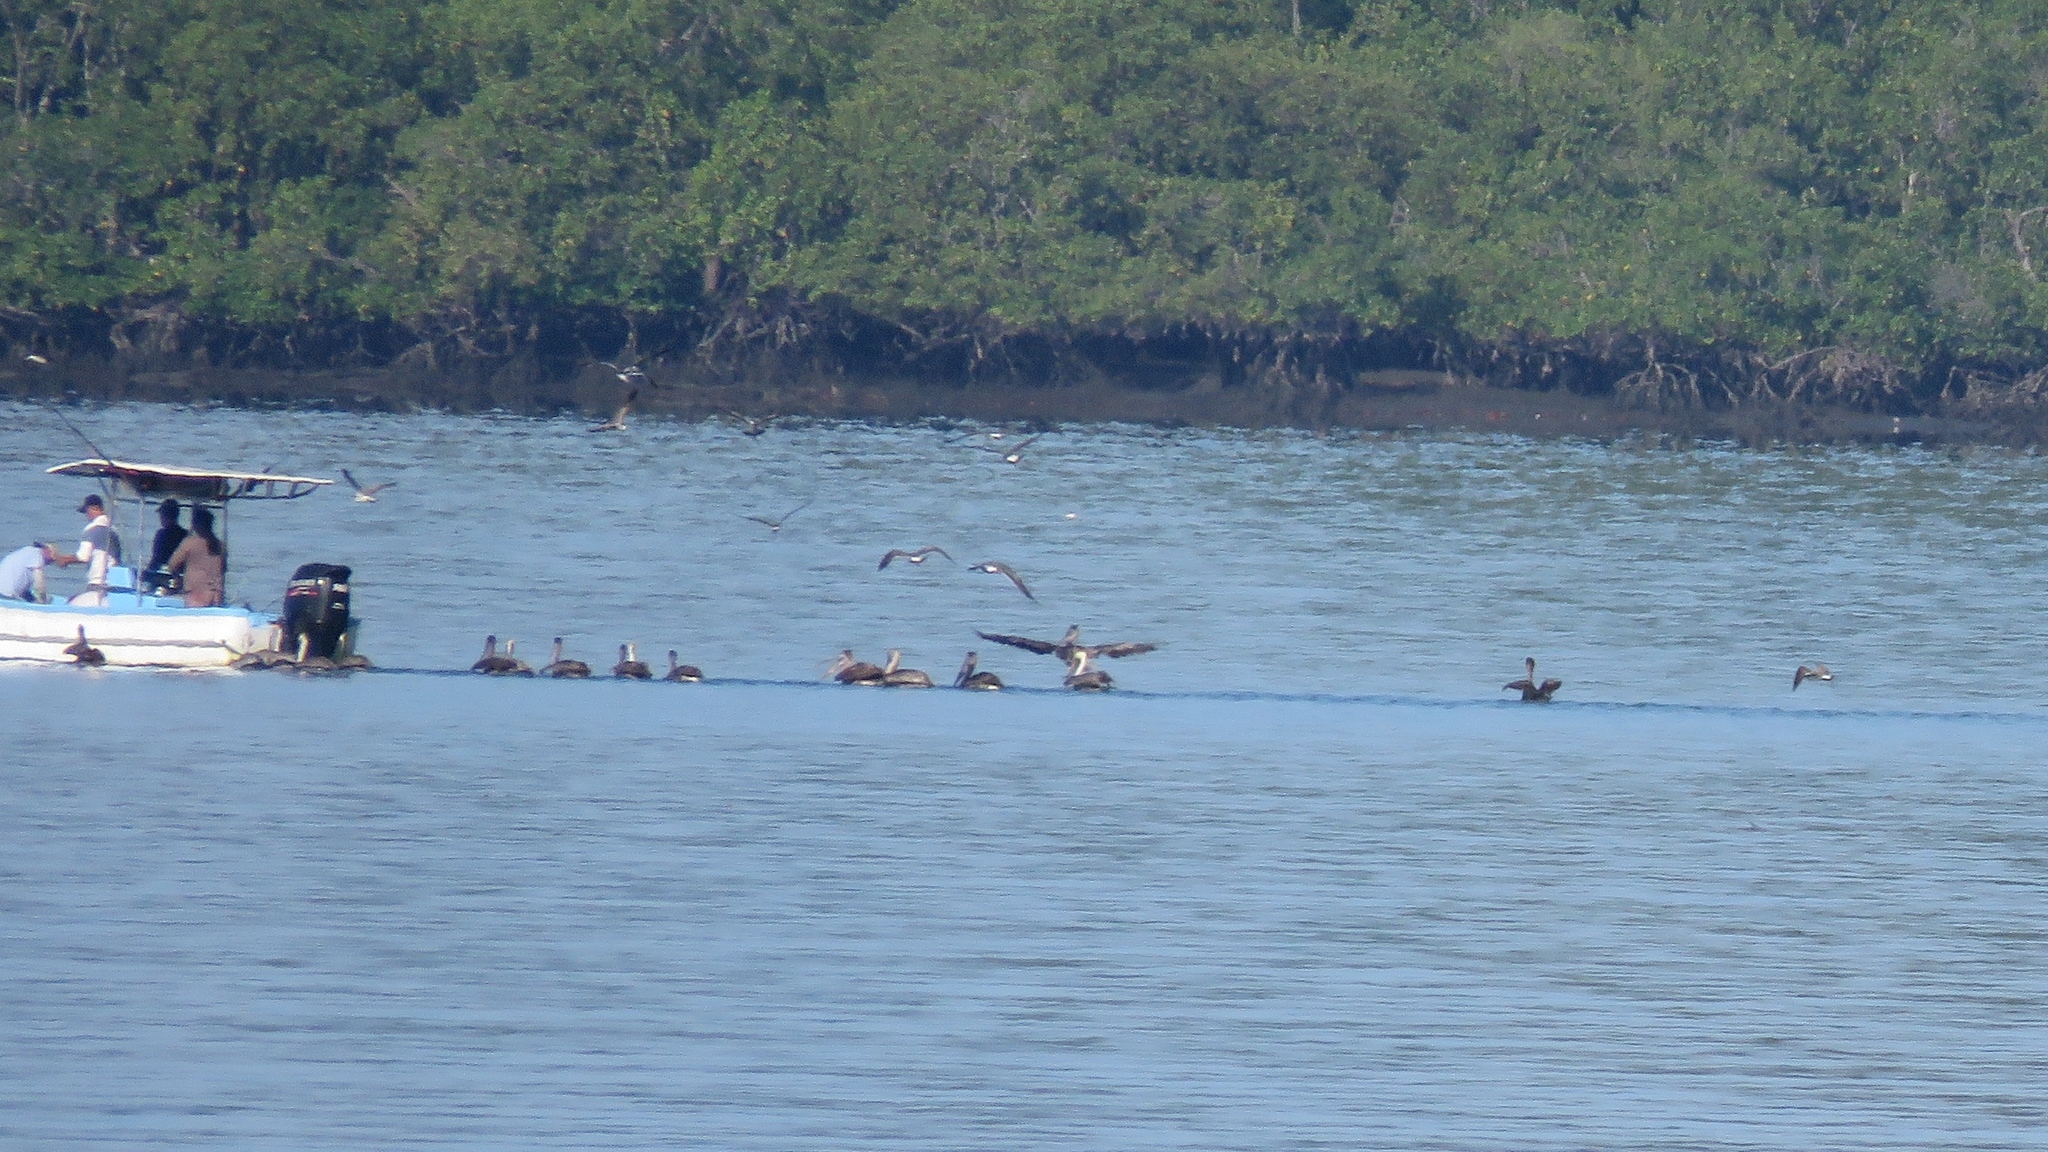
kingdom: Animalia
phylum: Chordata
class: Aves
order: Pelecaniformes
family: Pelecanidae
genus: Pelecanus
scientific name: Pelecanus occidentalis
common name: Brown pelican
